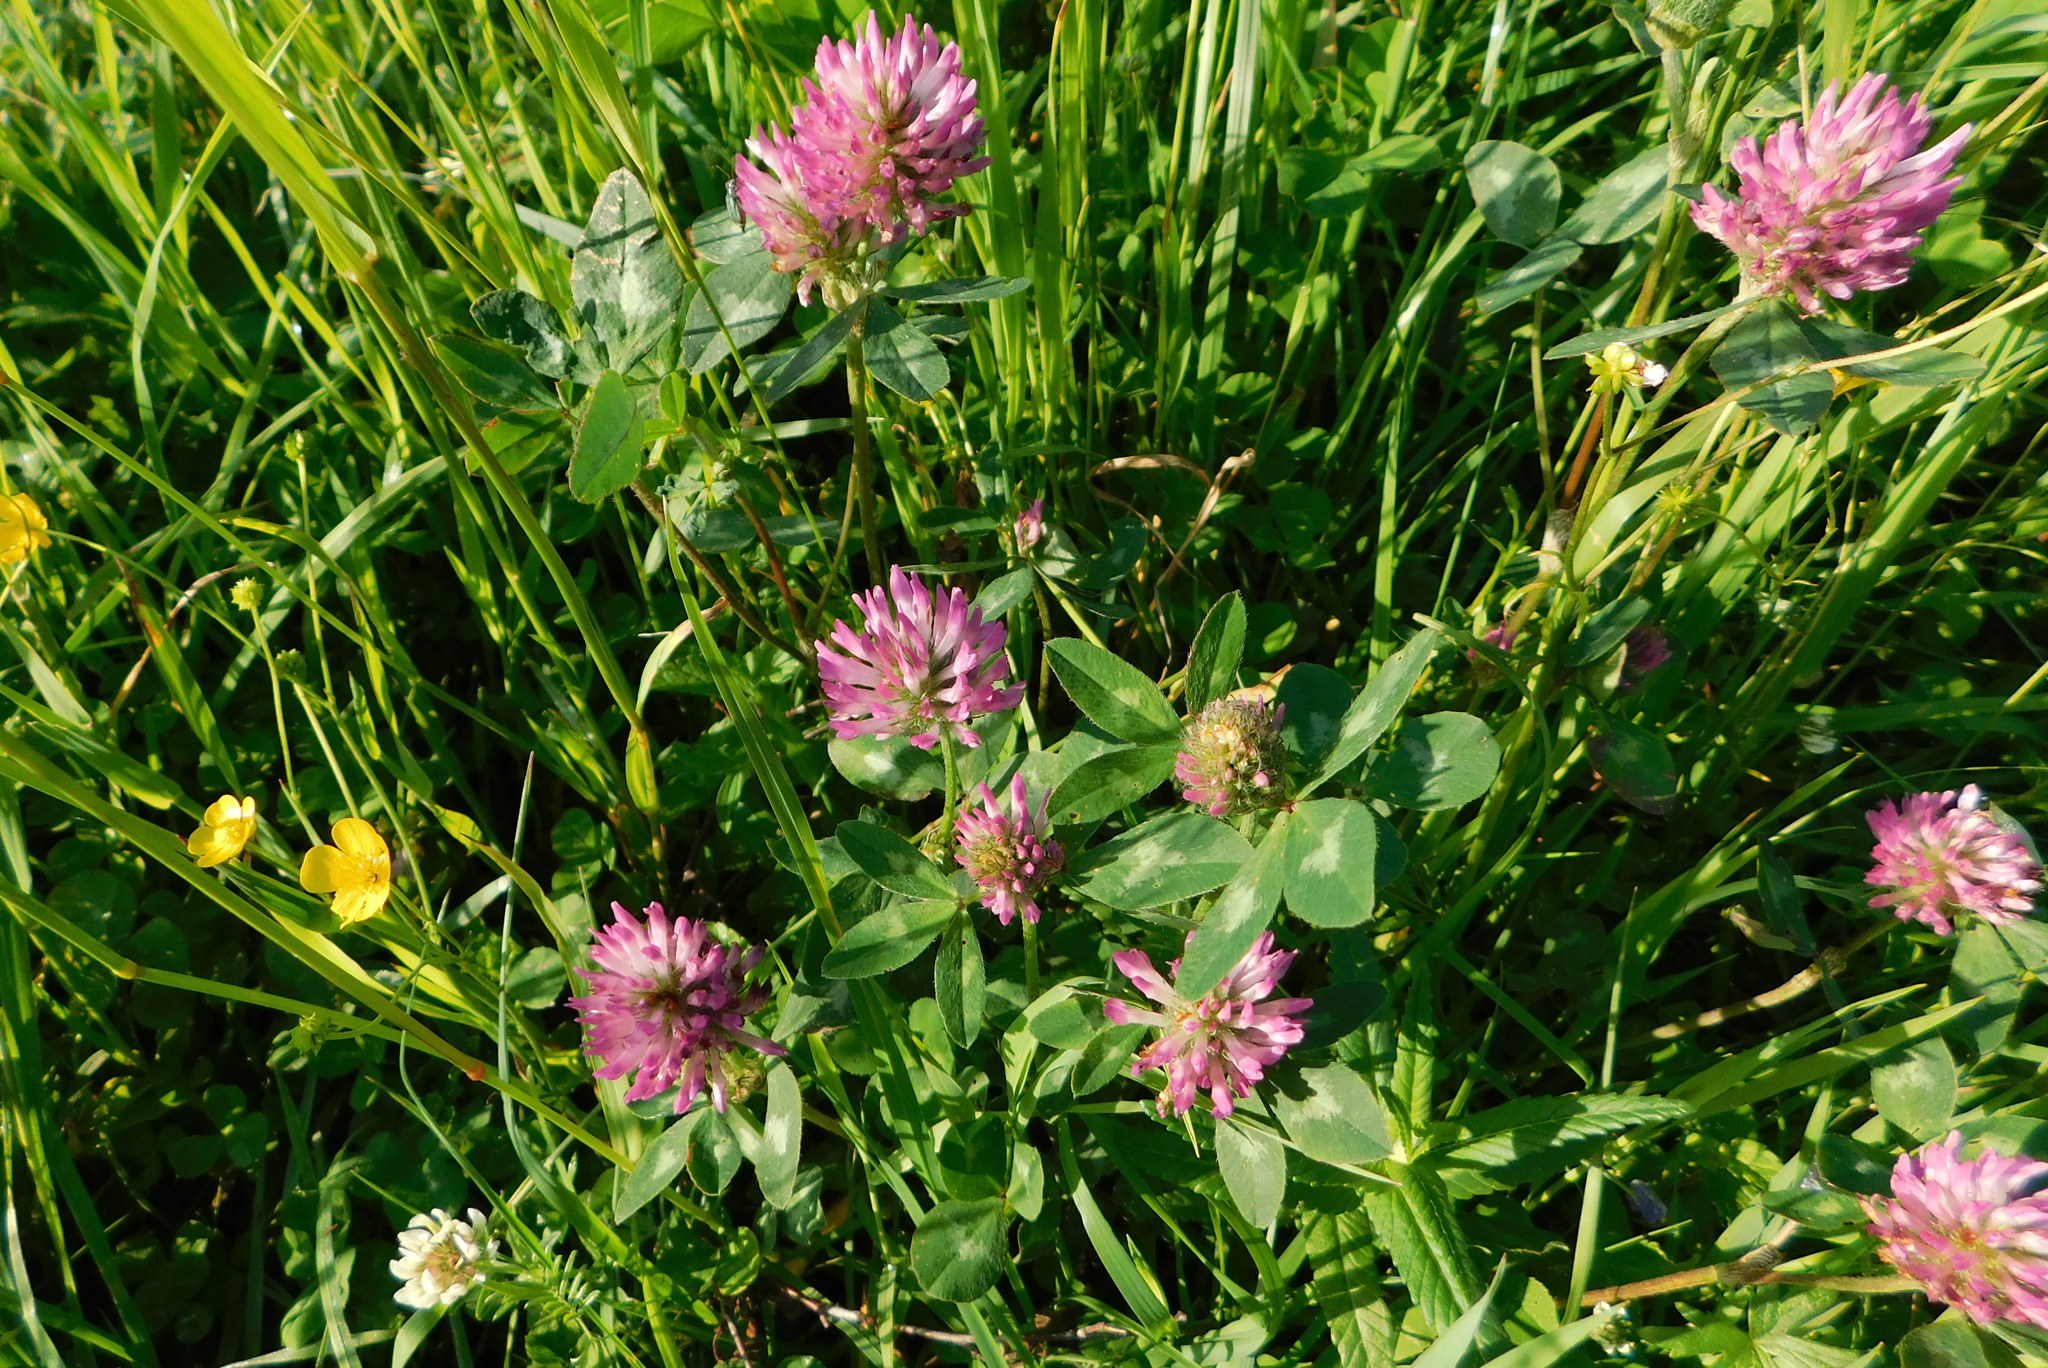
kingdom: Plantae
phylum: Tracheophyta
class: Magnoliopsida
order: Fabales
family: Fabaceae
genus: Trifolium
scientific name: Trifolium pratense
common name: Red clover
